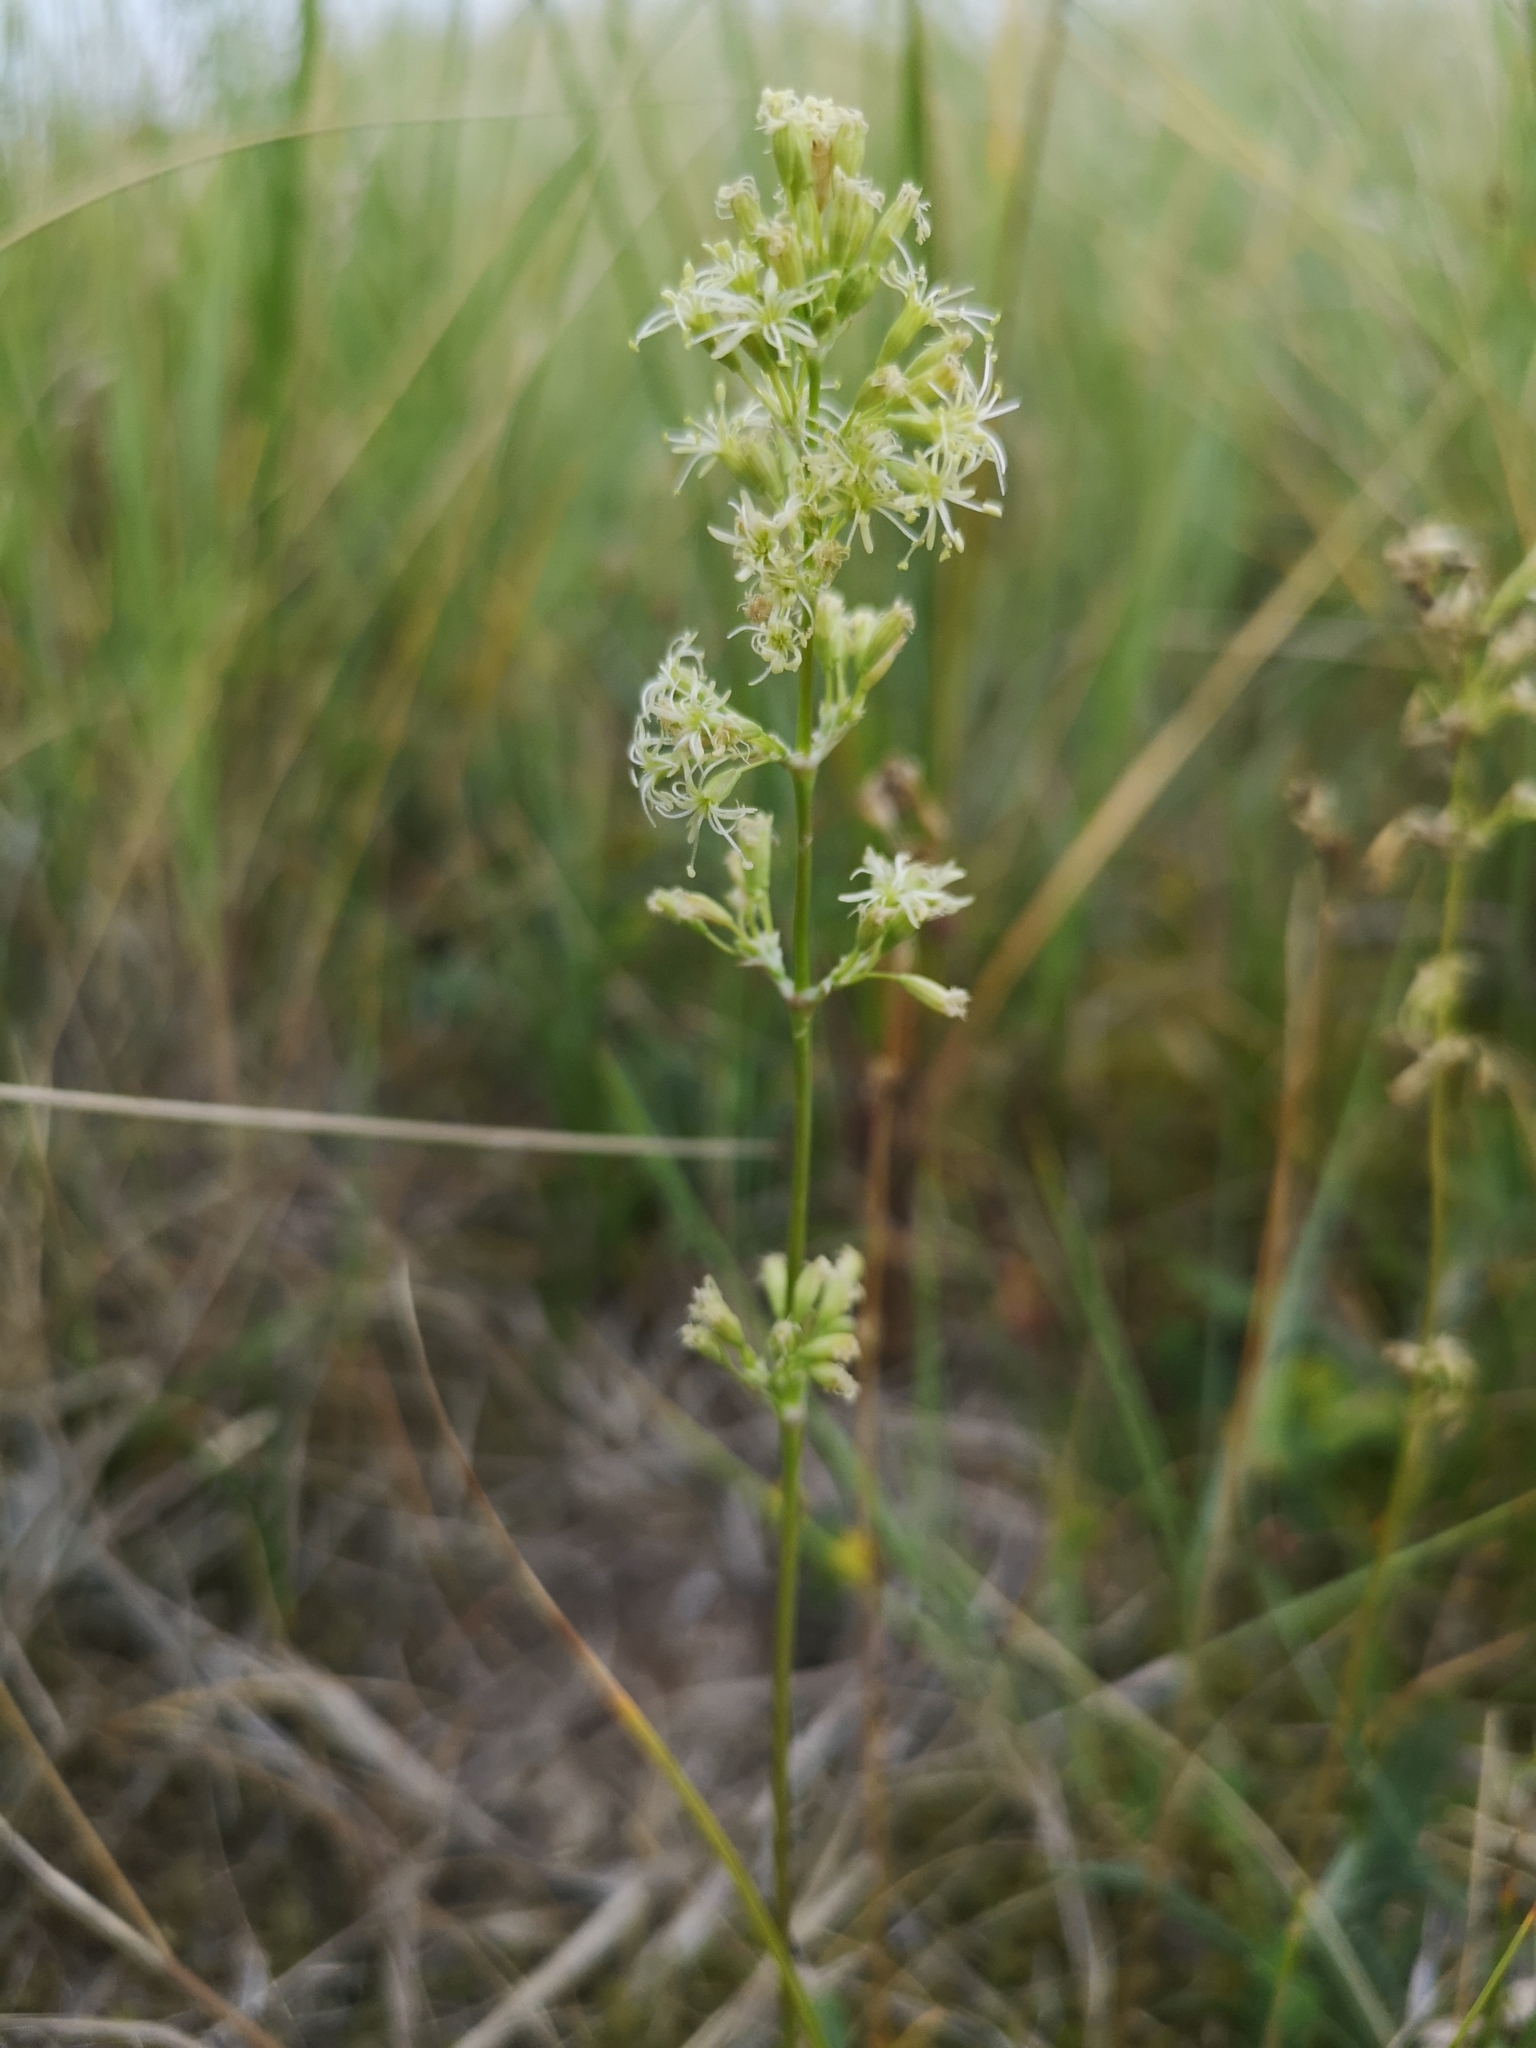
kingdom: Plantae
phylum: Tracheophyta
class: Magnoliopsida
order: Caryophyllales
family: Caryophyllaceae
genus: Silene
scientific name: Silene otites
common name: Spanish catchfly
